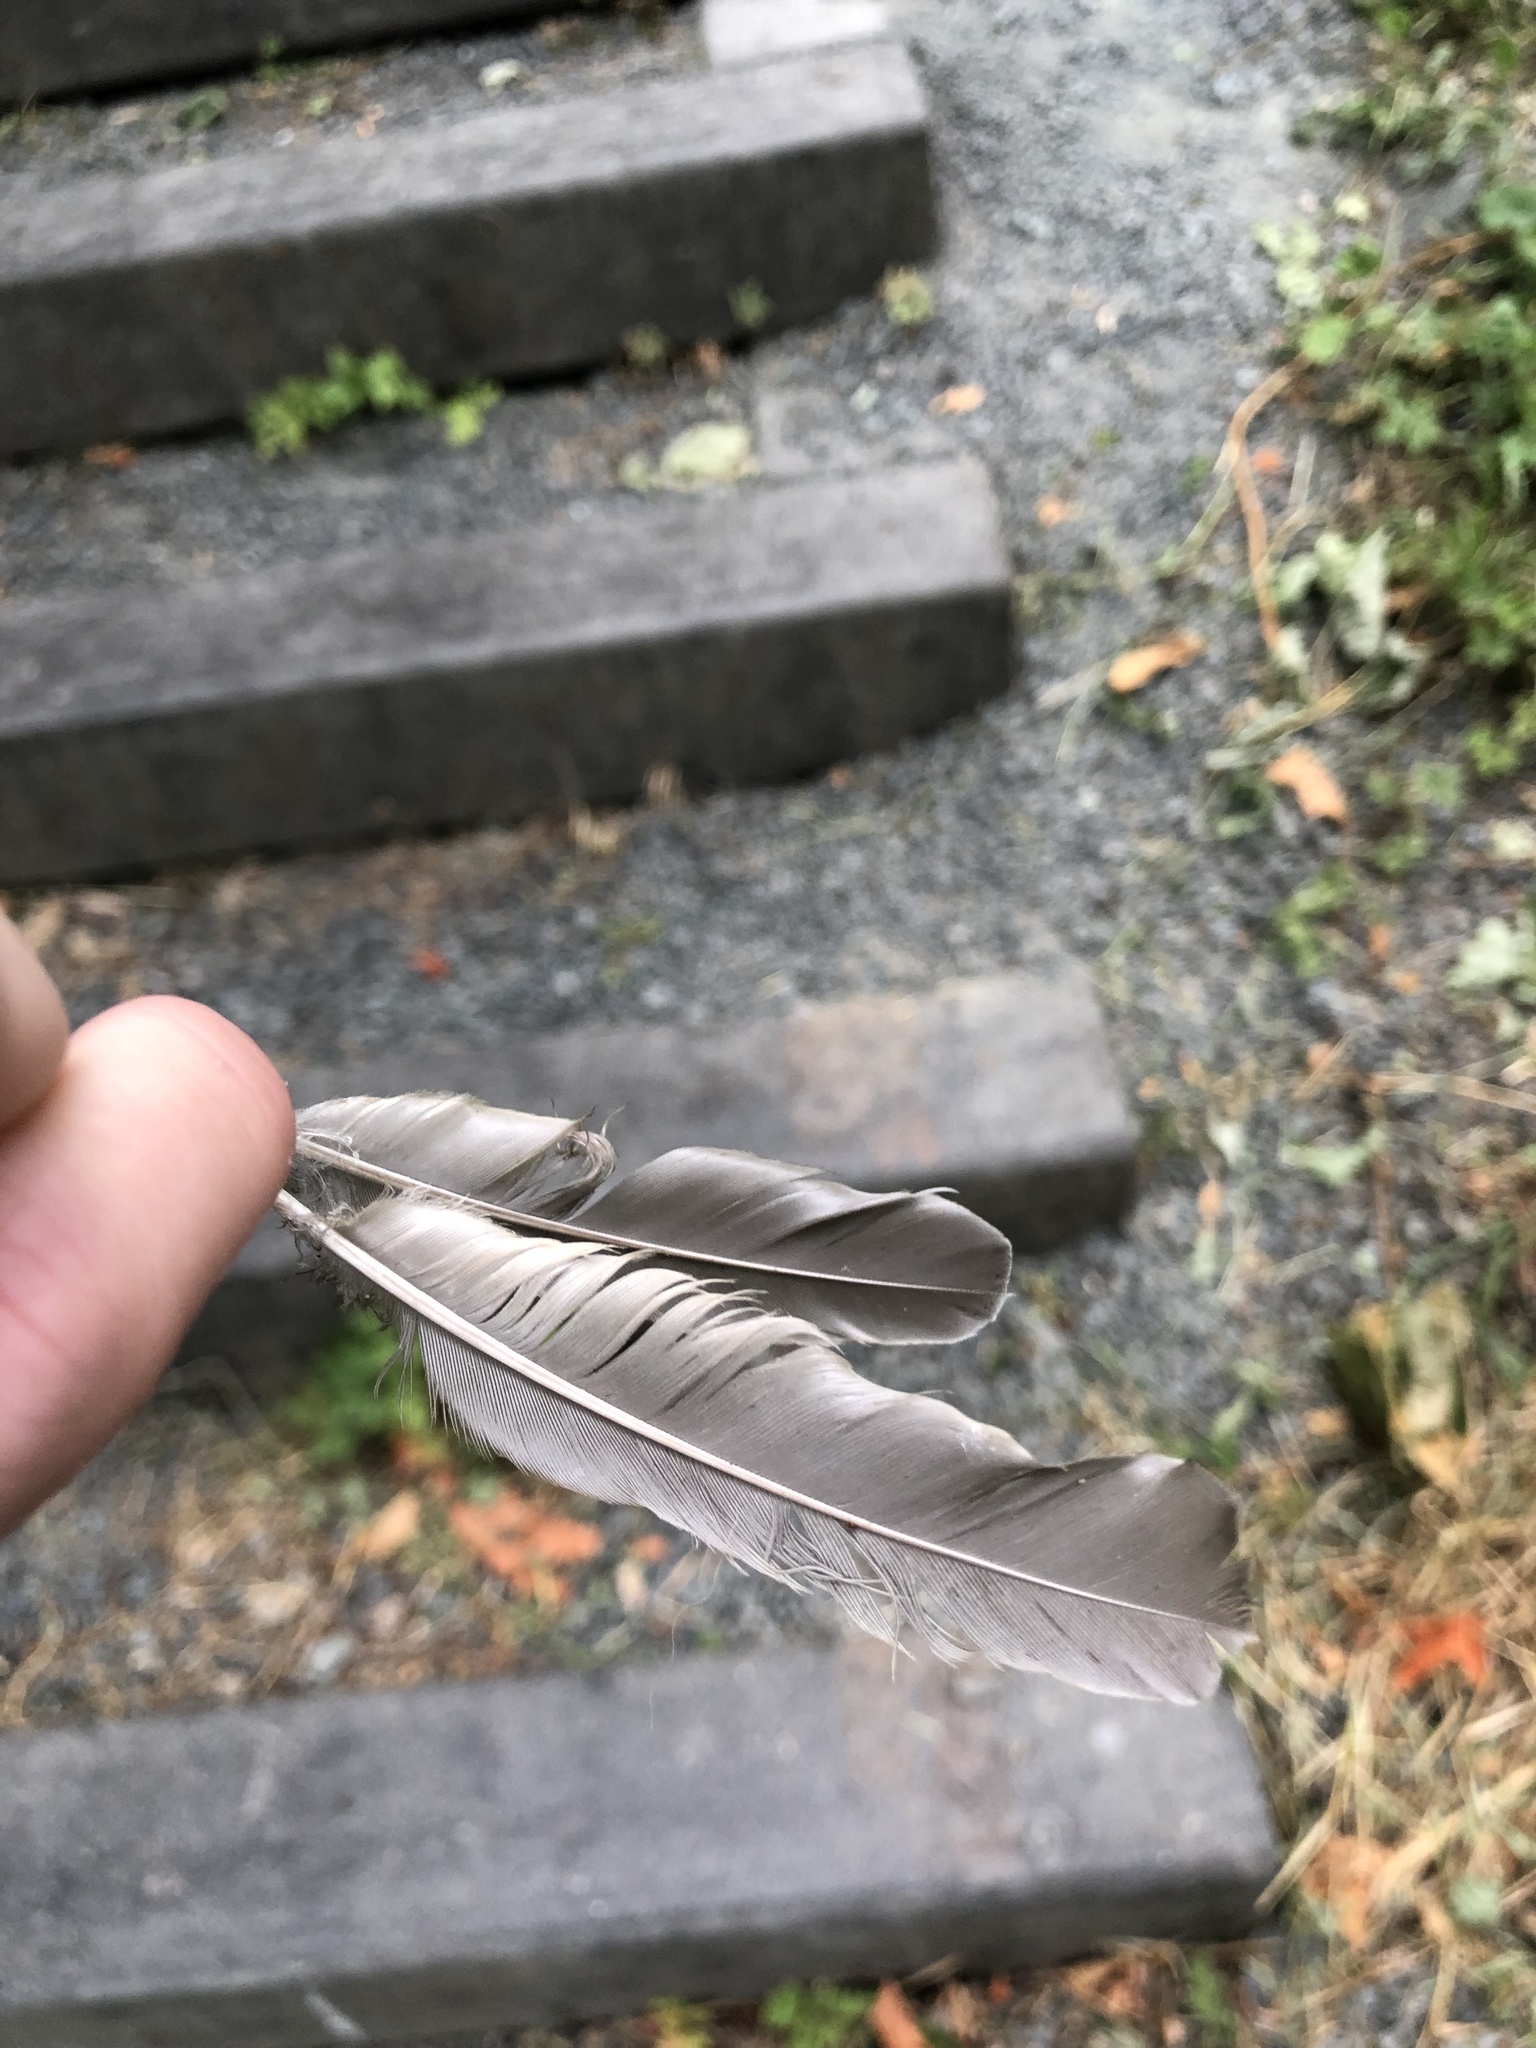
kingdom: Animalia
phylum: Chordata
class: Aves
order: Passeriformes
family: Turdidae
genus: Turdus
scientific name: Turdus migratorius
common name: American robin
